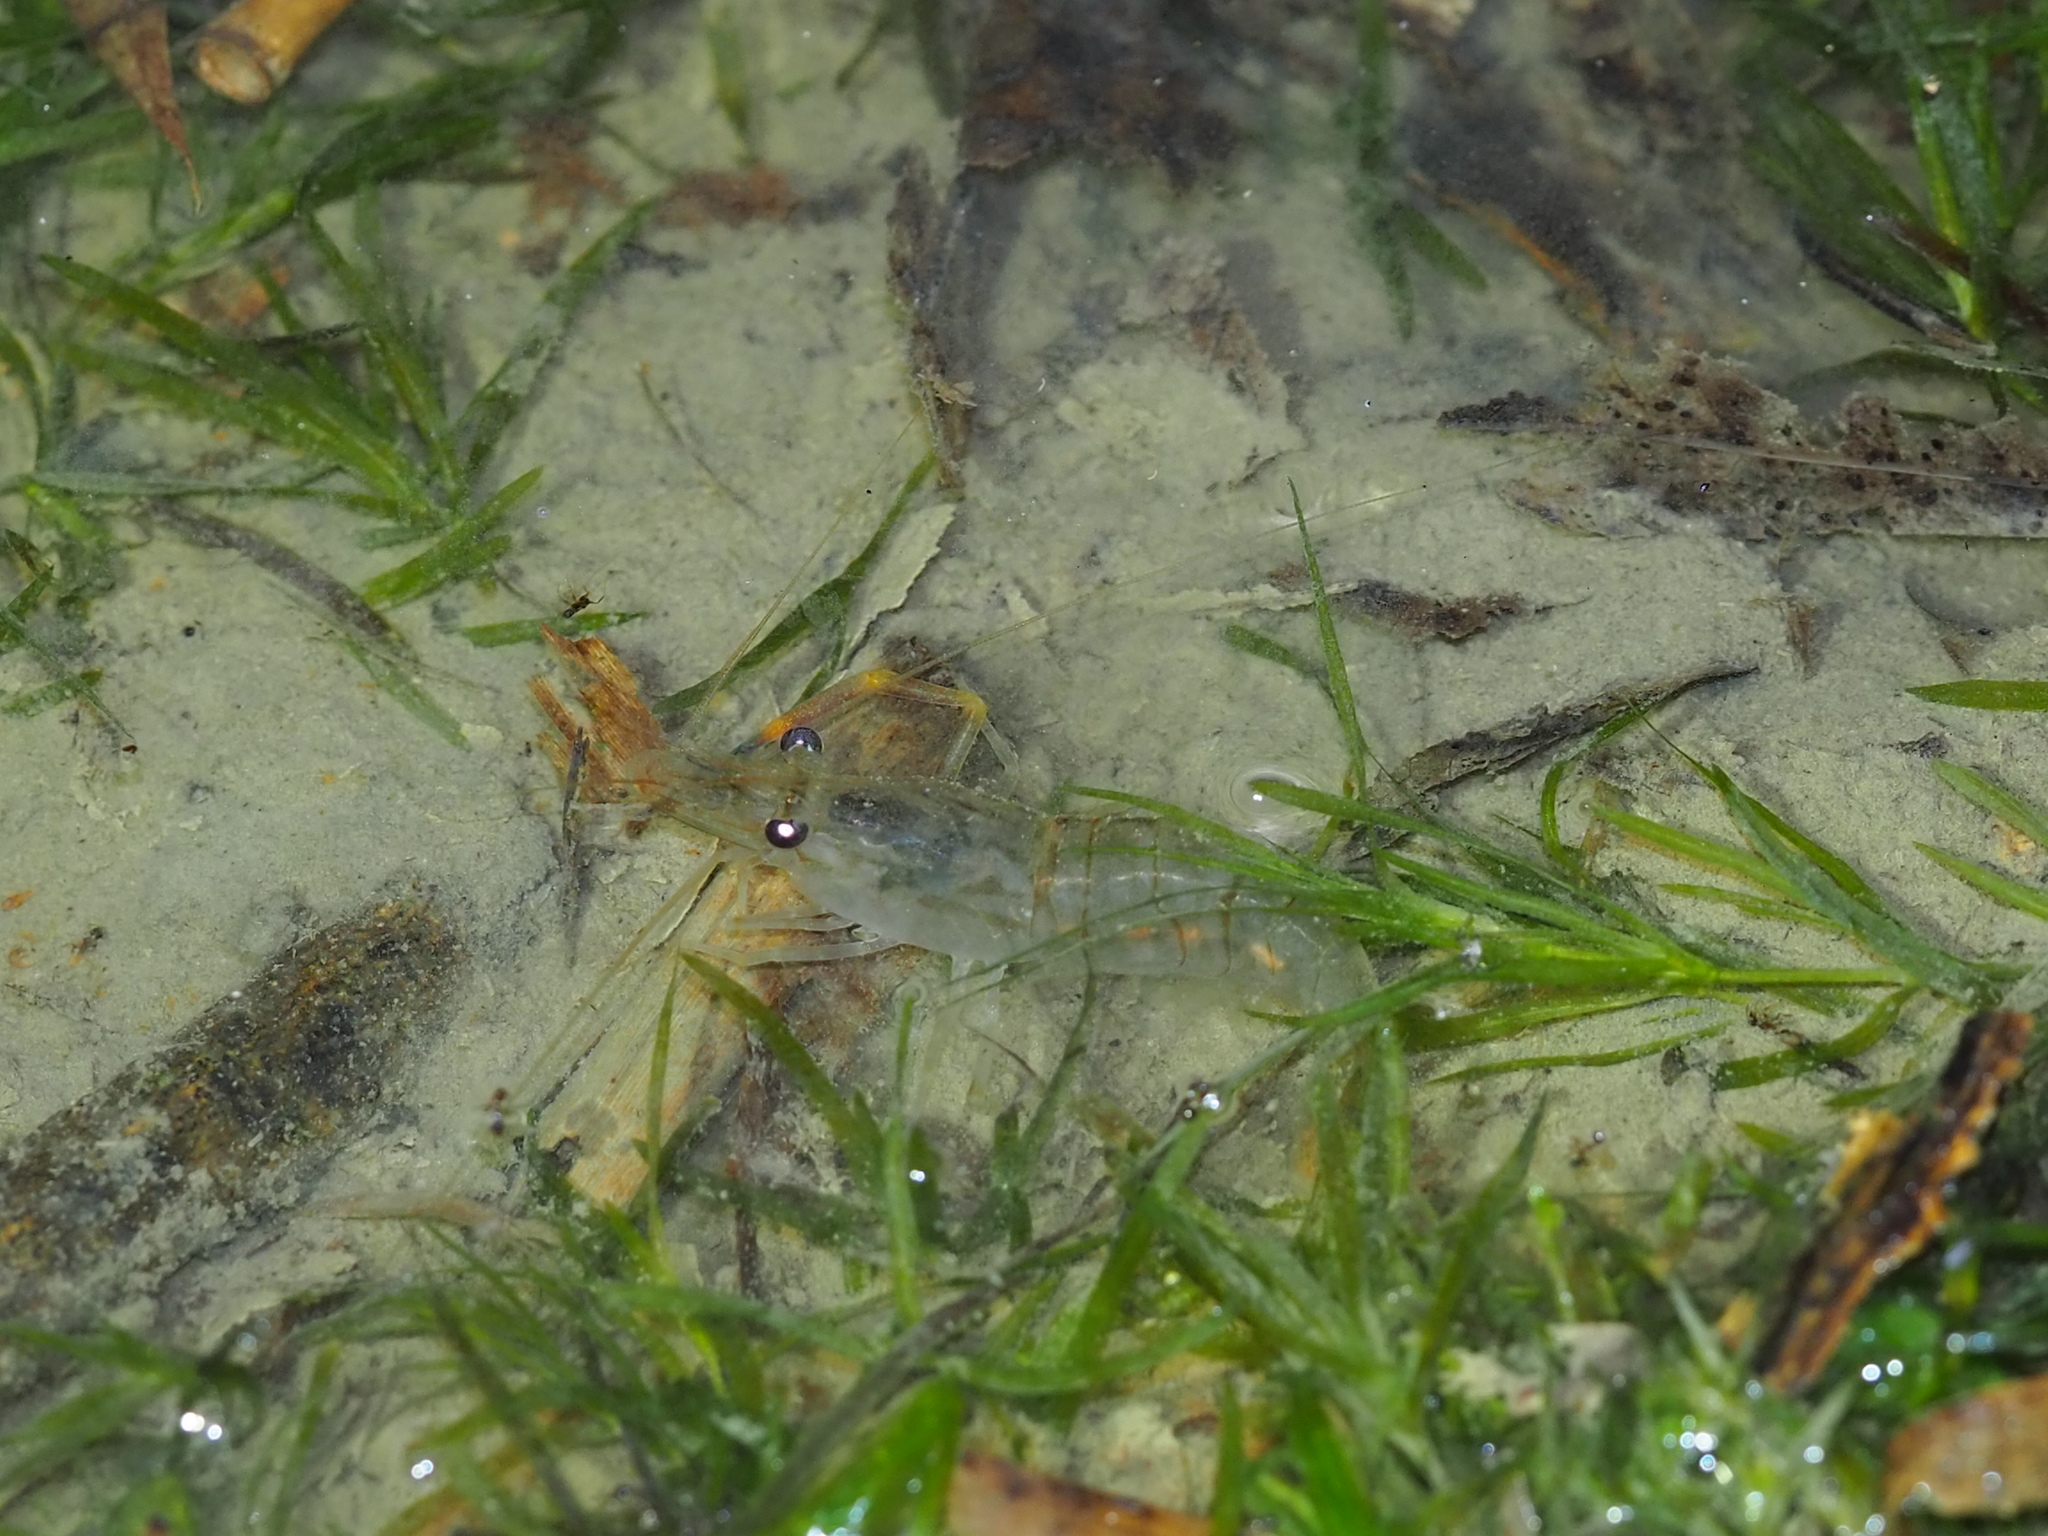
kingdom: Animalia
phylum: Arthropoda
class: Malacostraca
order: Decapoda
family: Palaemonidae
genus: Macrobrachium
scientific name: Macrobrachium asperulum
